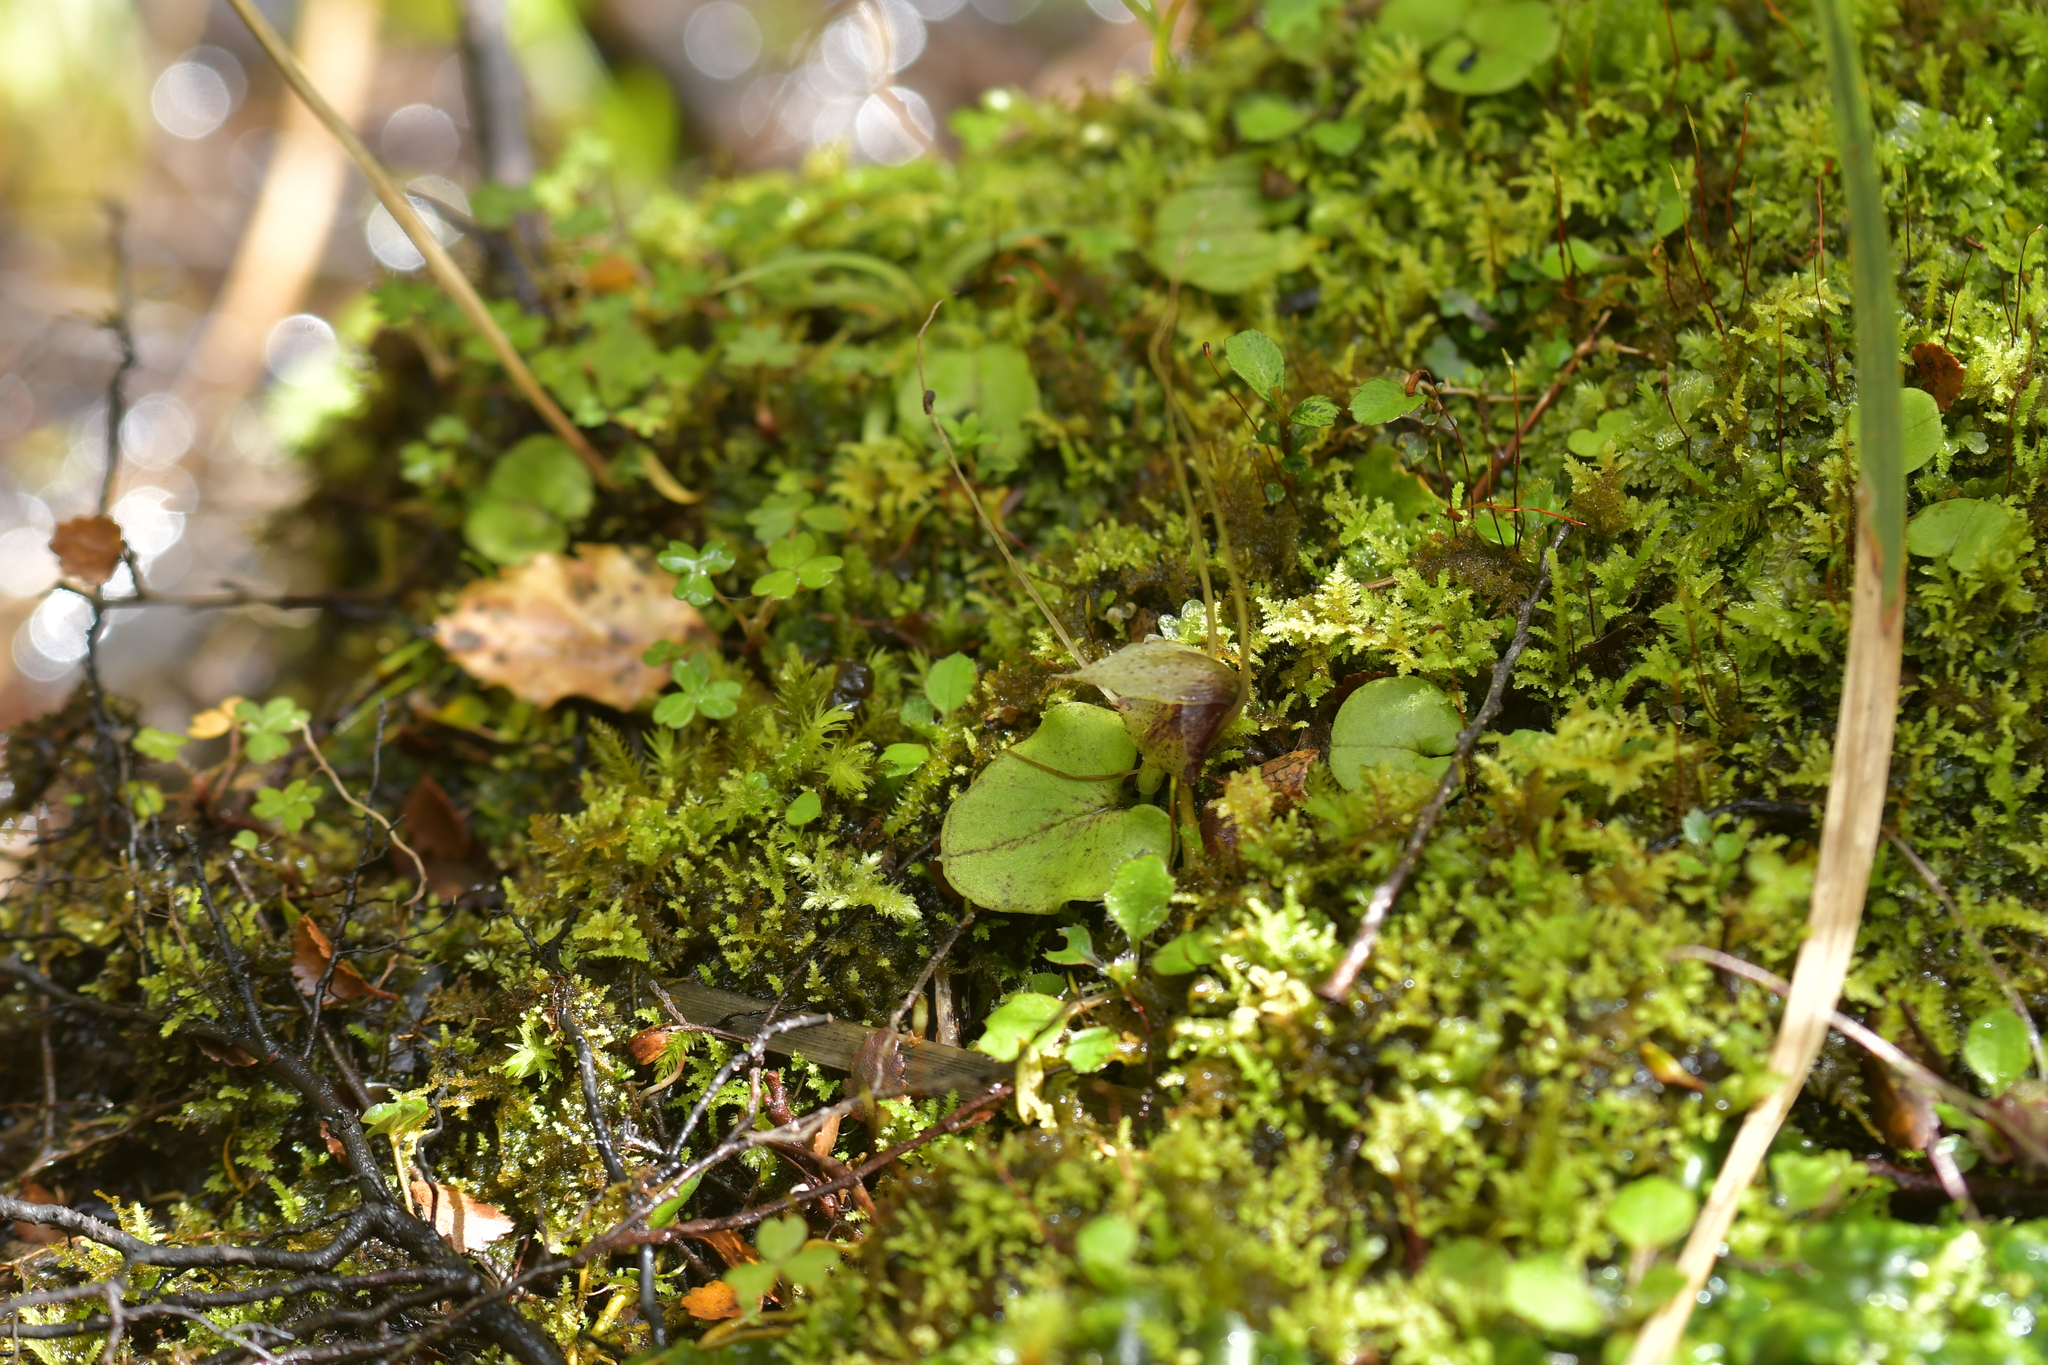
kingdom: Plantae
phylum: Tracheophyta
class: Liliopsida
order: Asparagales
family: Orchidaceae
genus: Corybas
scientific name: Corybas hatchii
